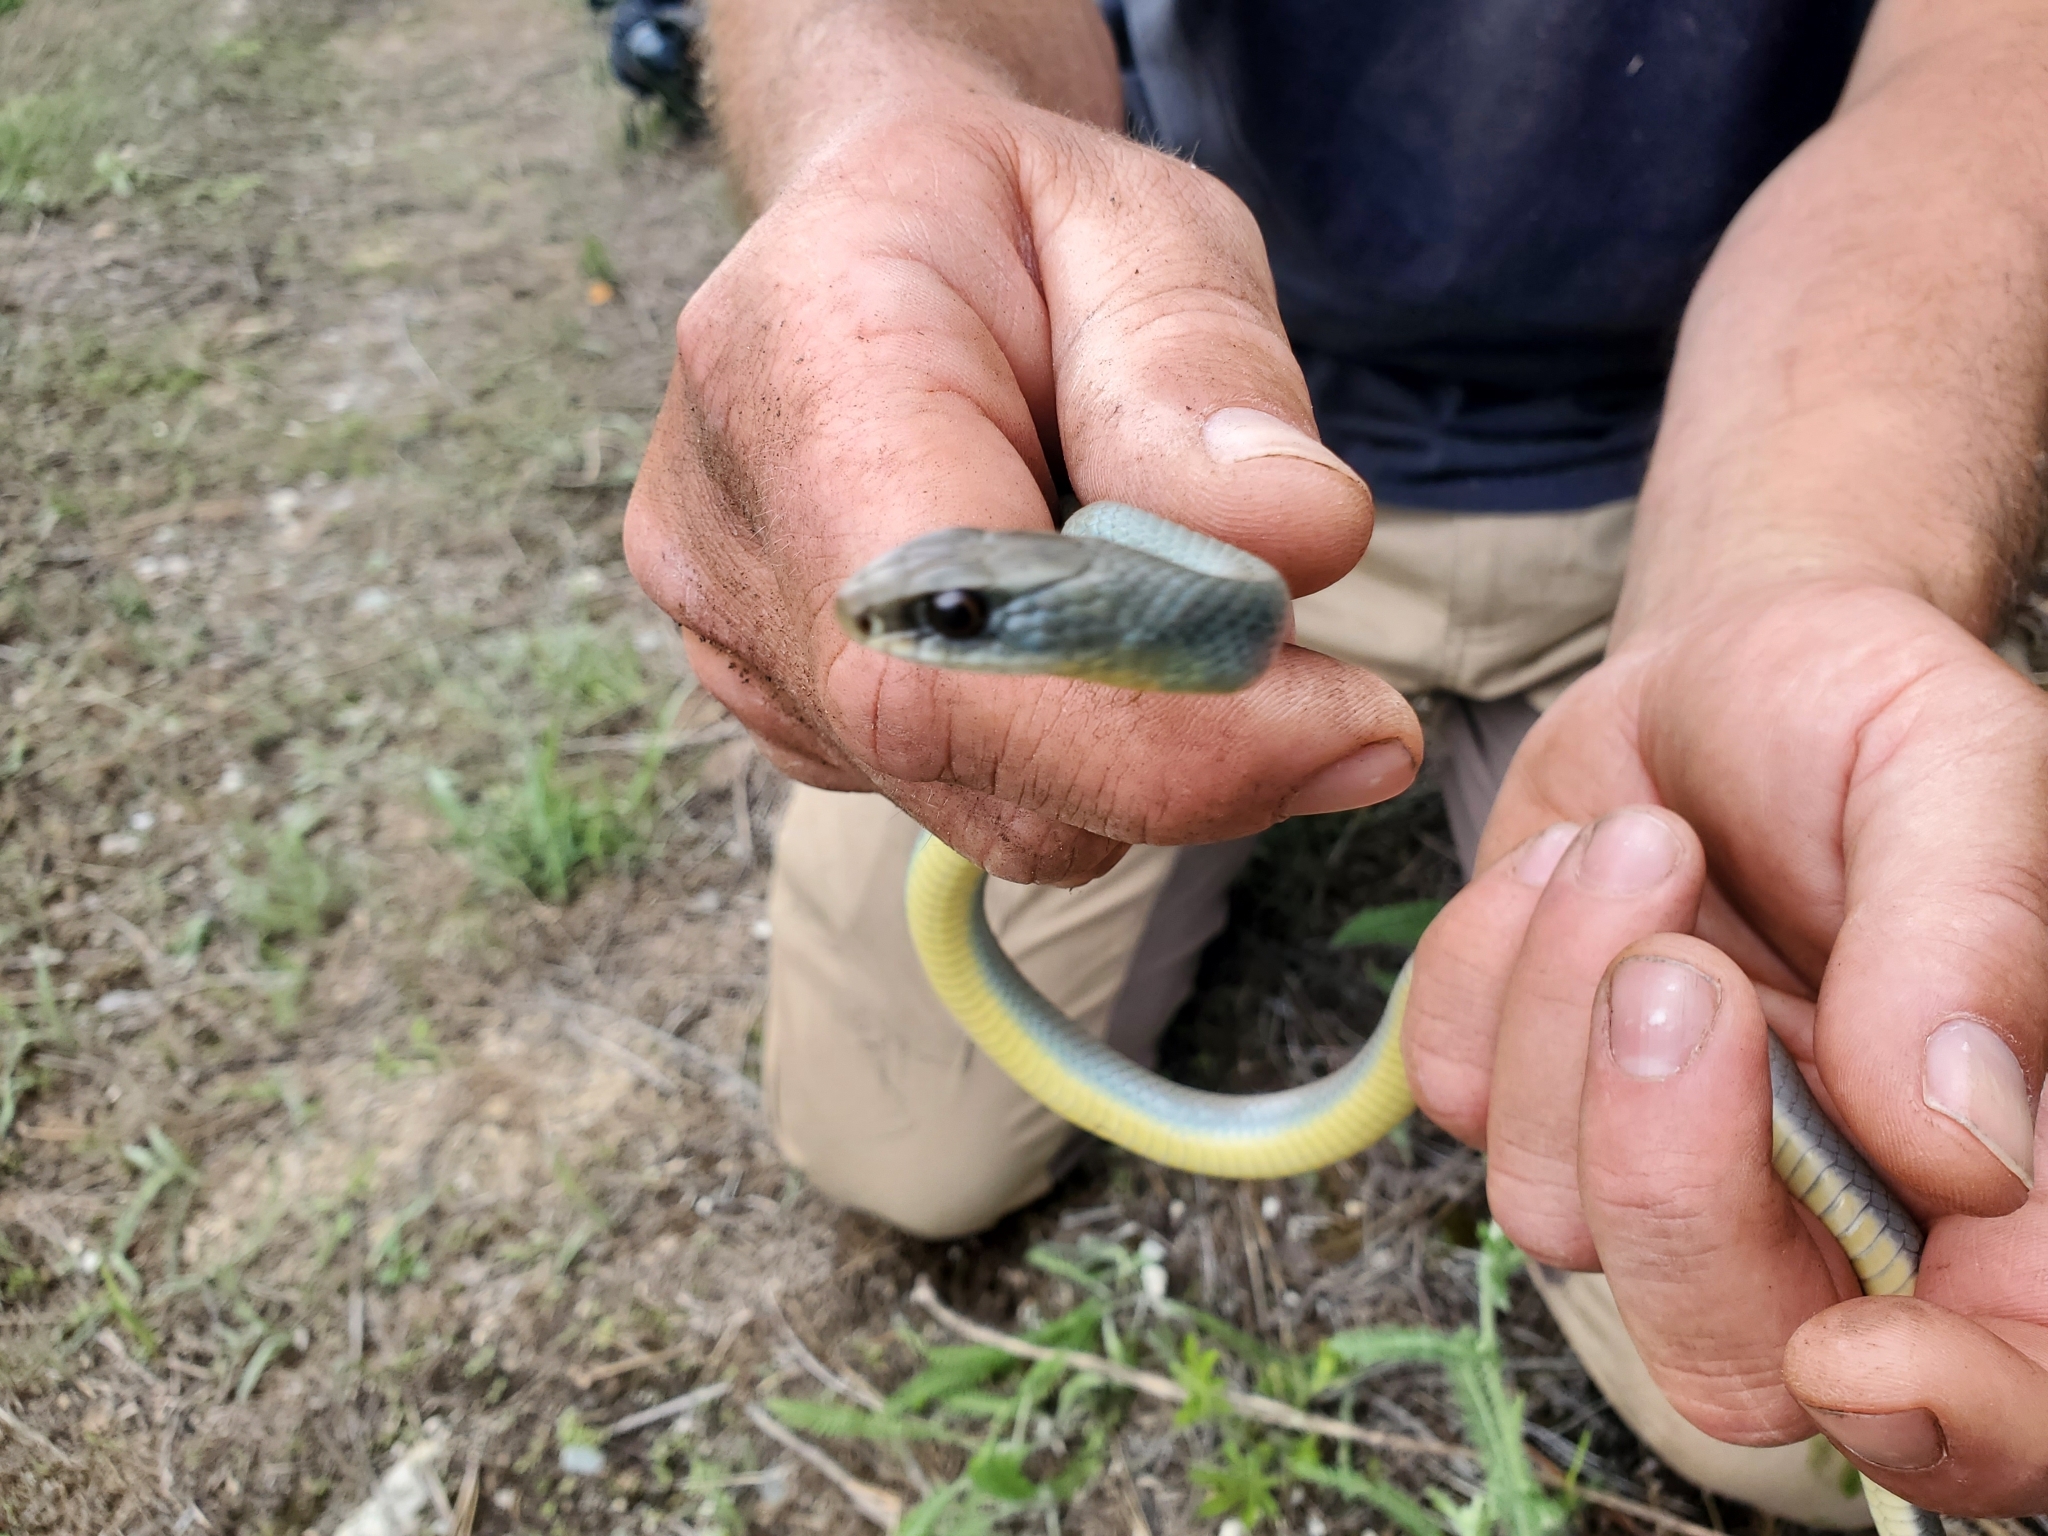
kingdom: Animalia
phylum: Chordata
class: Squamata
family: Colubridae
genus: Coluber
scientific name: Coluber constrictor
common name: Eastern racer
